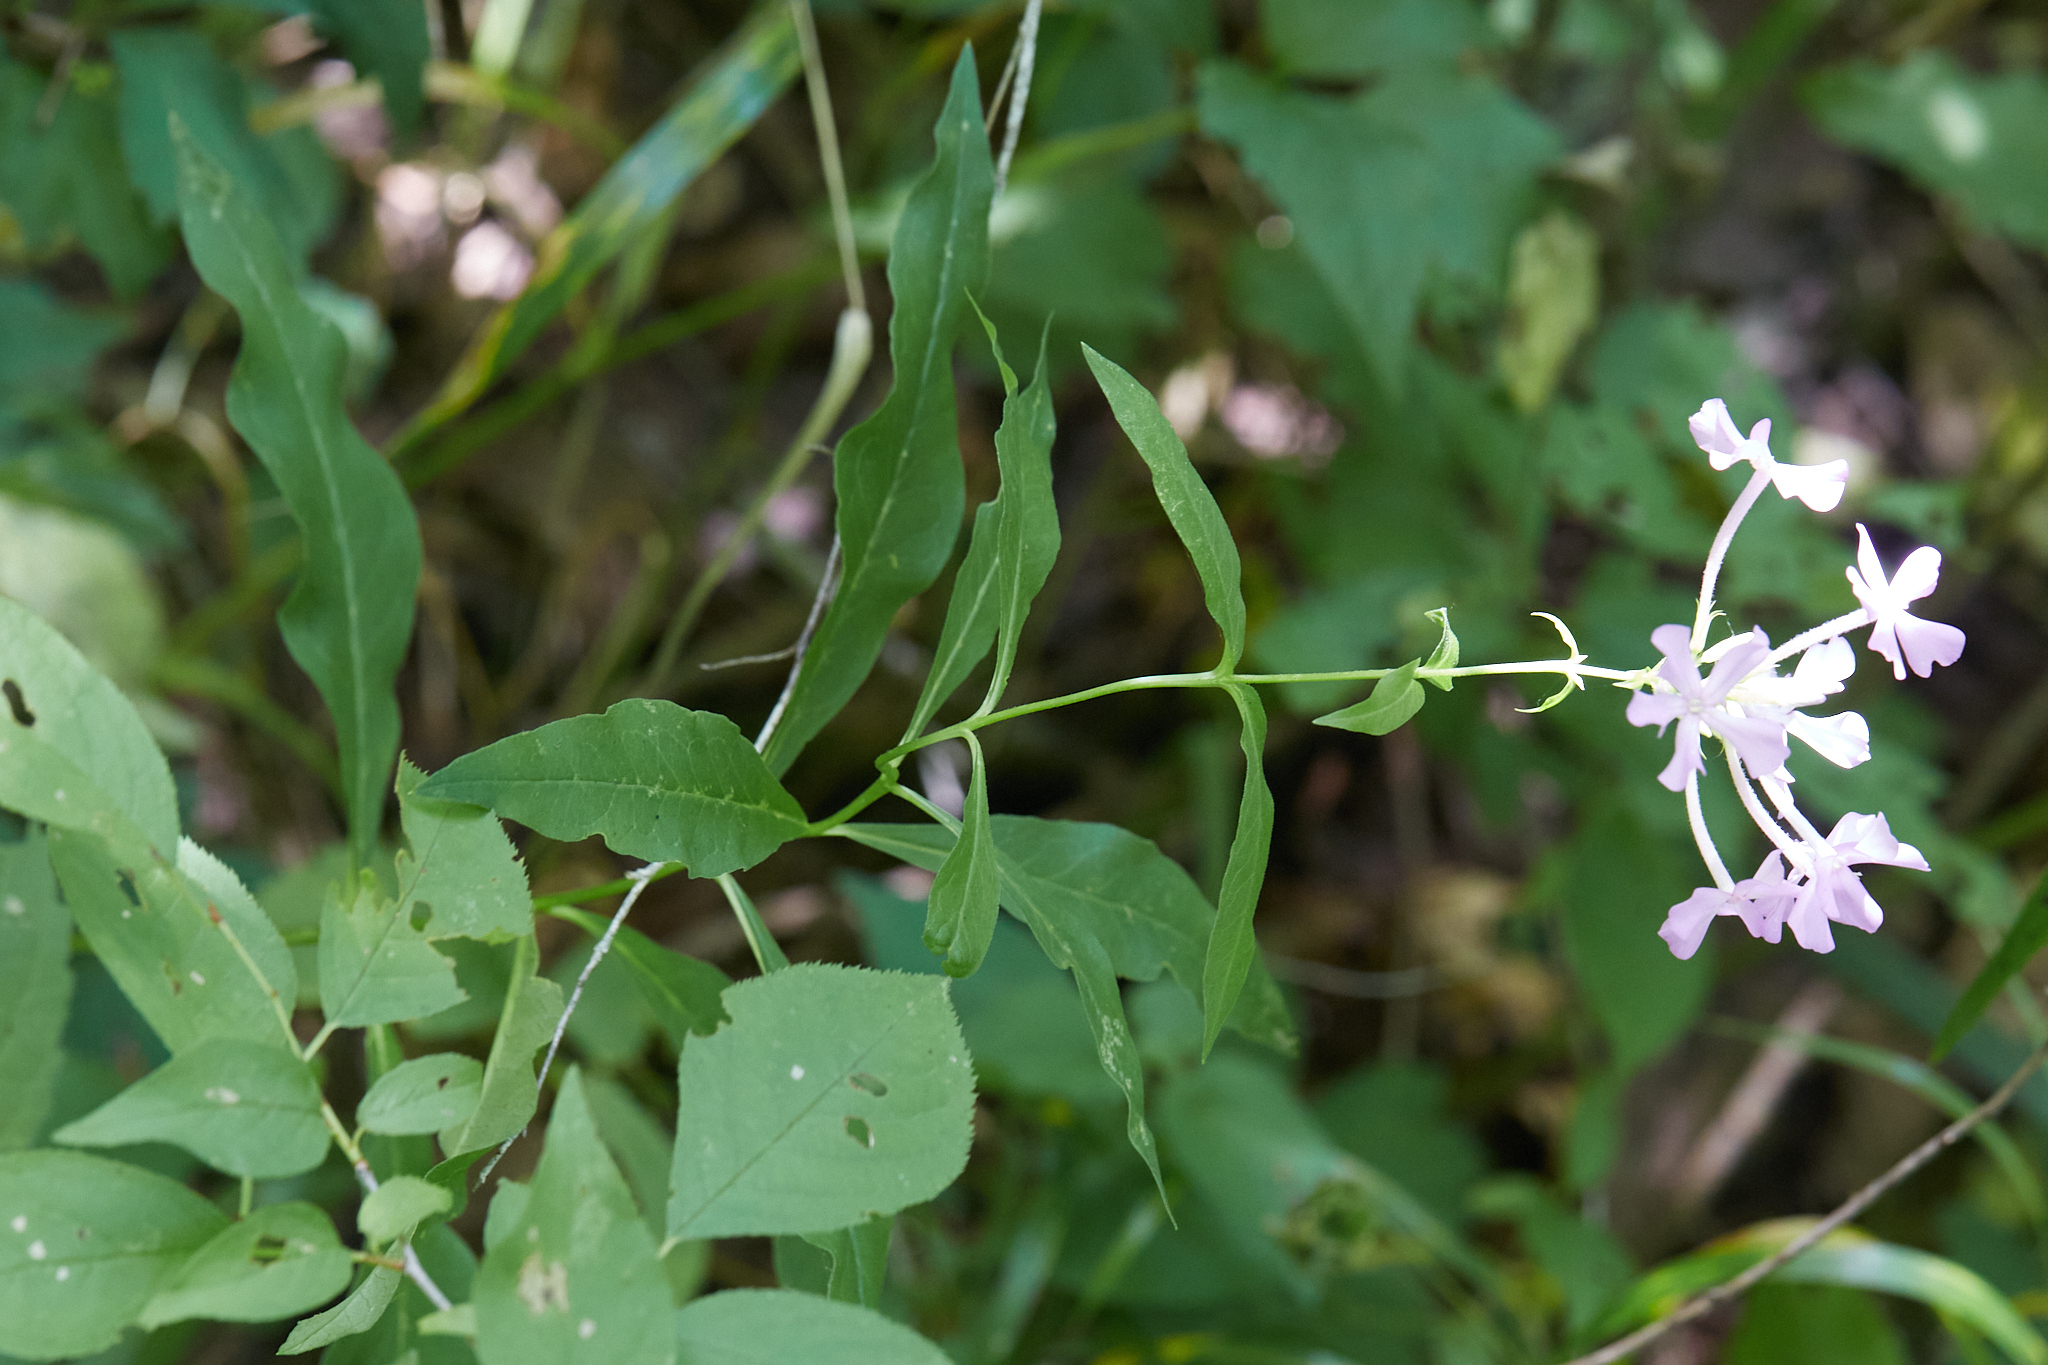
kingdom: Plantae
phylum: Tracheophyta
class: Magnoliopsida
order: Ericales
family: Polemoniaceae
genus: Phlox
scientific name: Phlox paniculata
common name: Fall phlox
